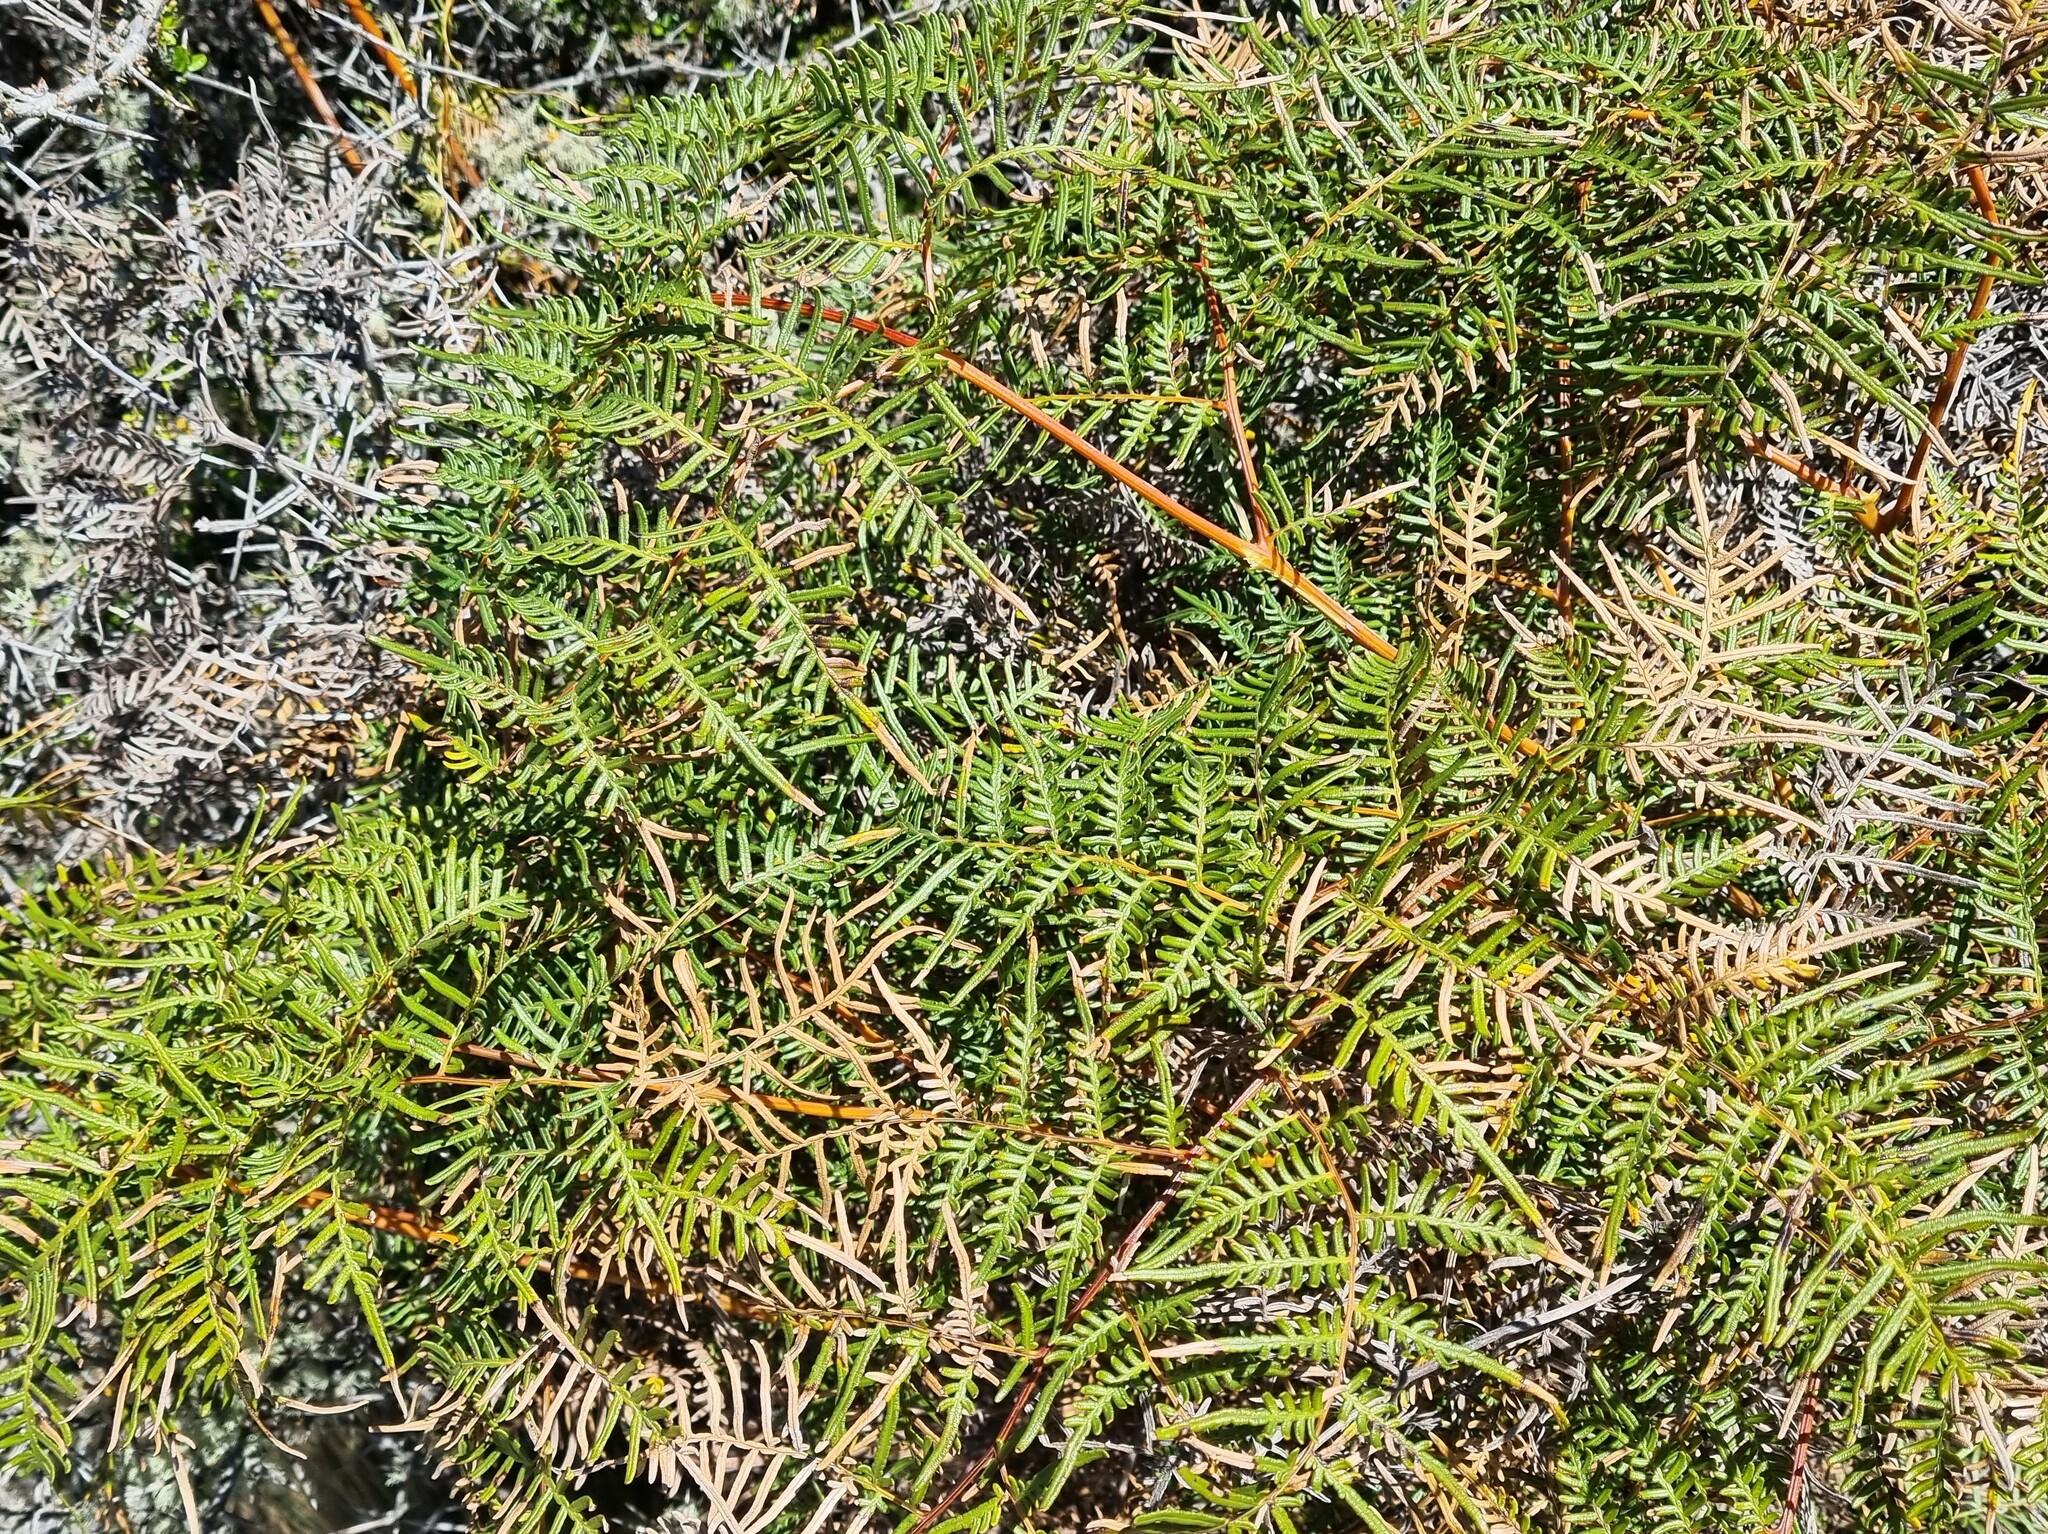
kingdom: Plantae
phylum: Tracheophyta
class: Polypodiopsida
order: Polypodiales
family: Dennstaedtiaceae
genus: Pteridium
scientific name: Pteridium esculentum
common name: Bracken fern
